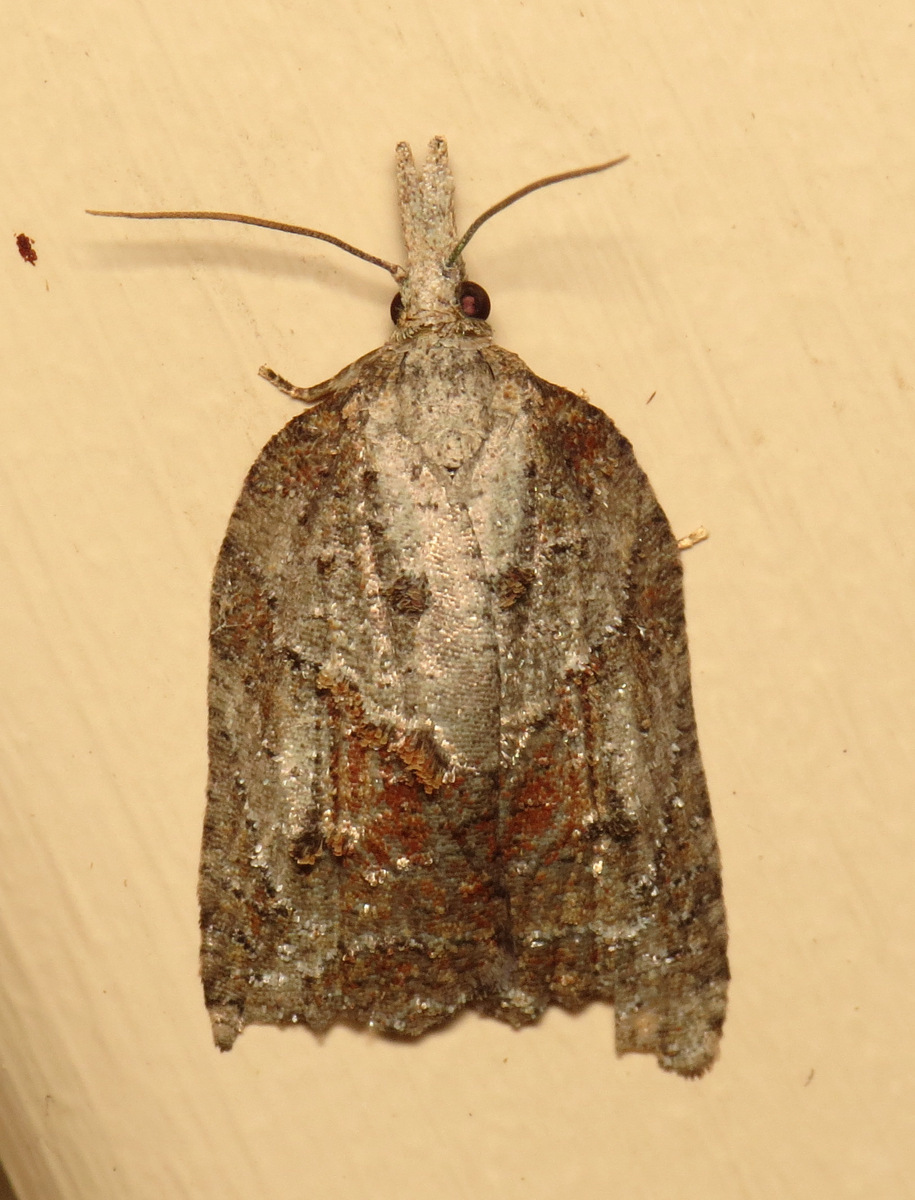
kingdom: Animalia
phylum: Arthropoda
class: Insecta
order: Lepidoptera
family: Tortricidae
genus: Platynota
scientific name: Platynota idaeusalis
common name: Tufted apple bud moth
